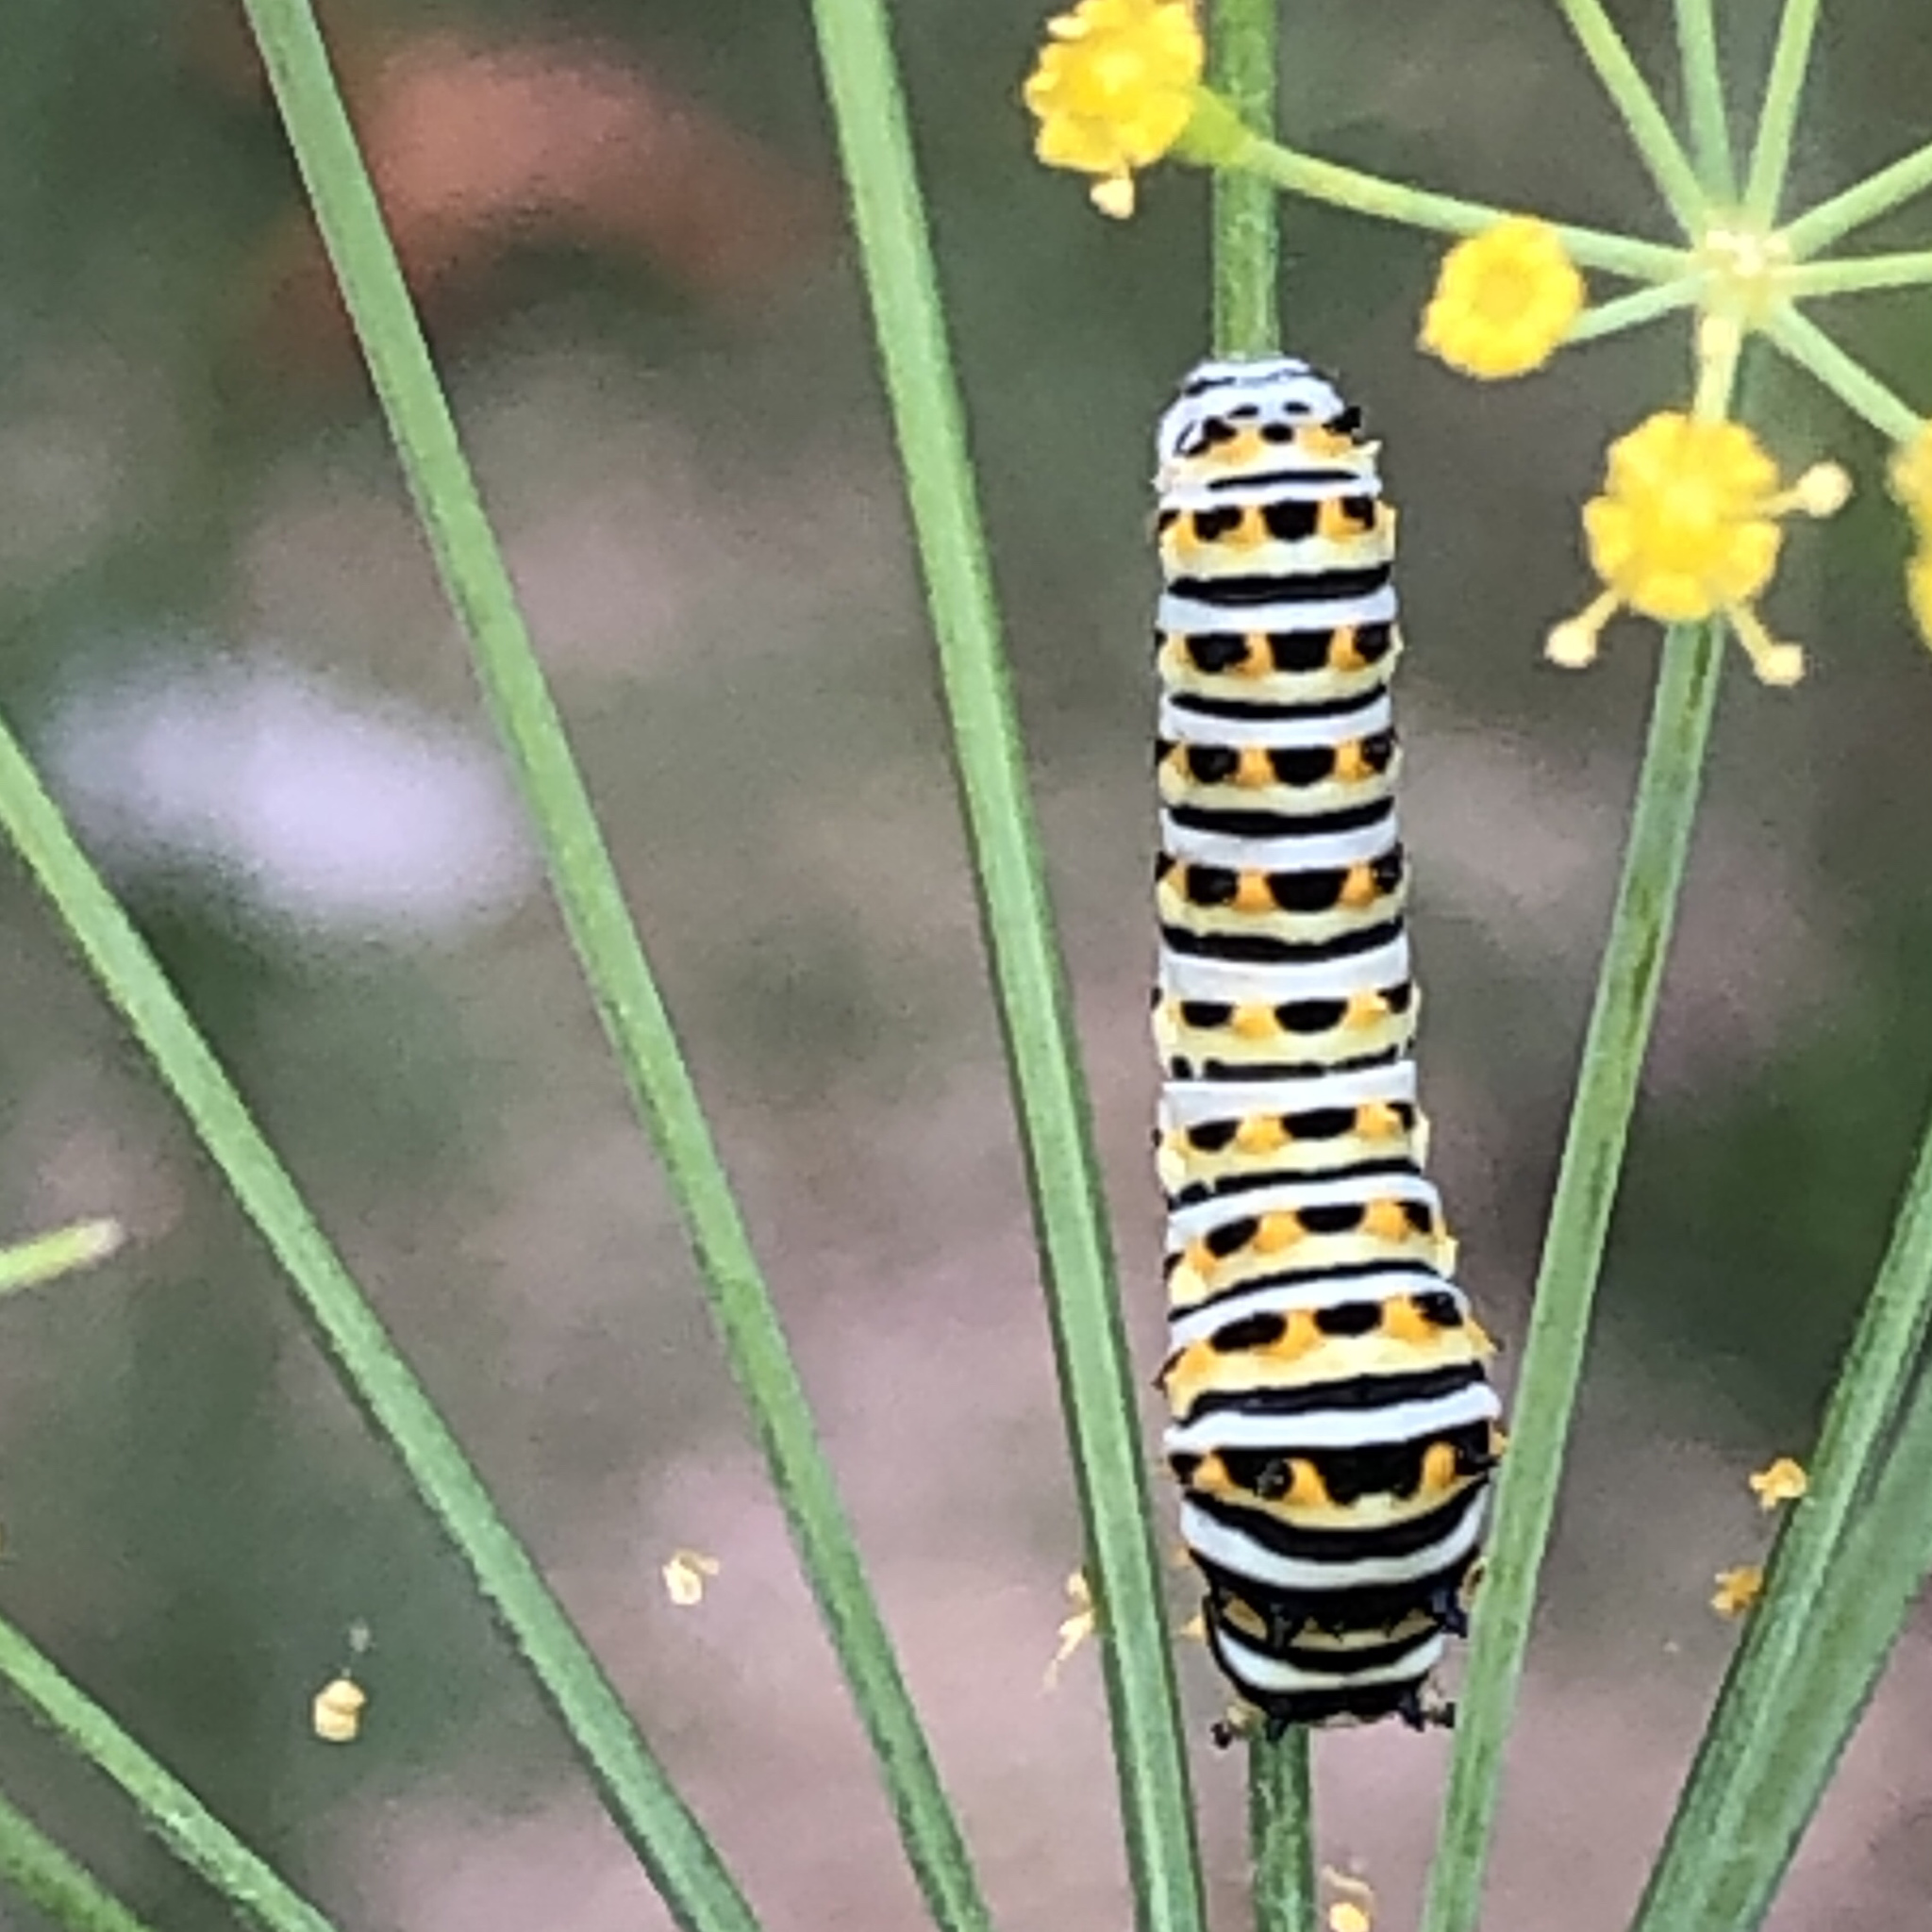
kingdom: Animalia
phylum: Arthropoda
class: Insecta
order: Lepidoptera
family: Papilionidae
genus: Papilio
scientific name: Papilio polyxenes
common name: Black swallowtail
